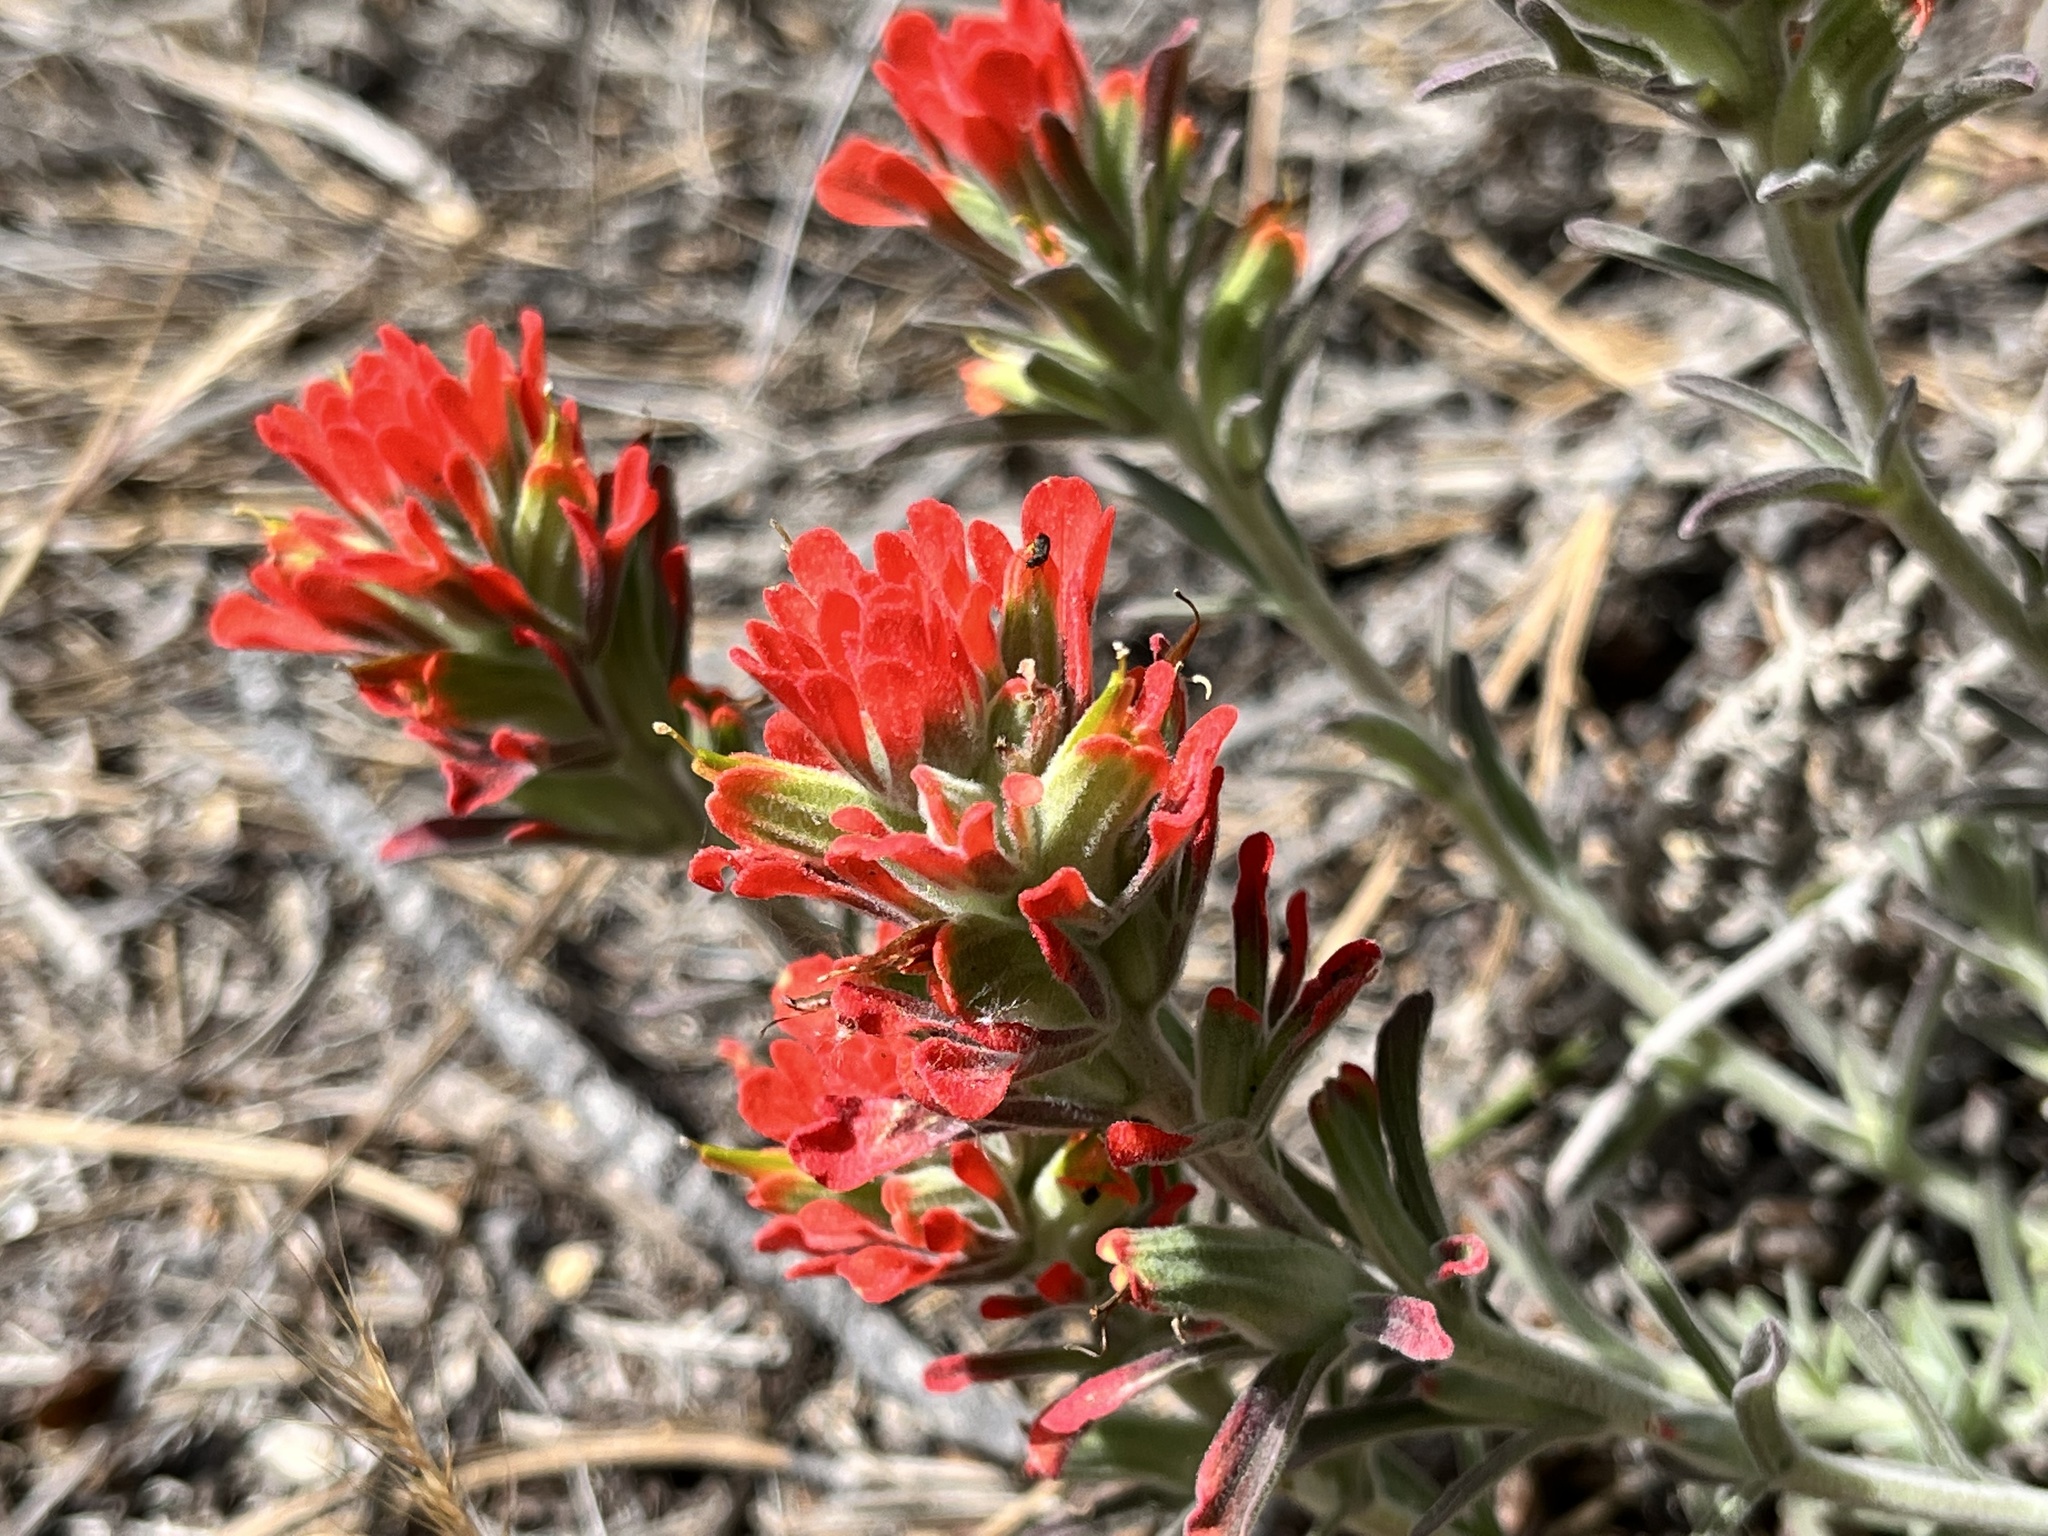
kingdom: Plantae
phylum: Tracheophyta
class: Magnoliopsida
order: Lamiales
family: Orobanchaceae
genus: Castilleja
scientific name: Castilleja foliolosa
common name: Woolly indian paintbrush
